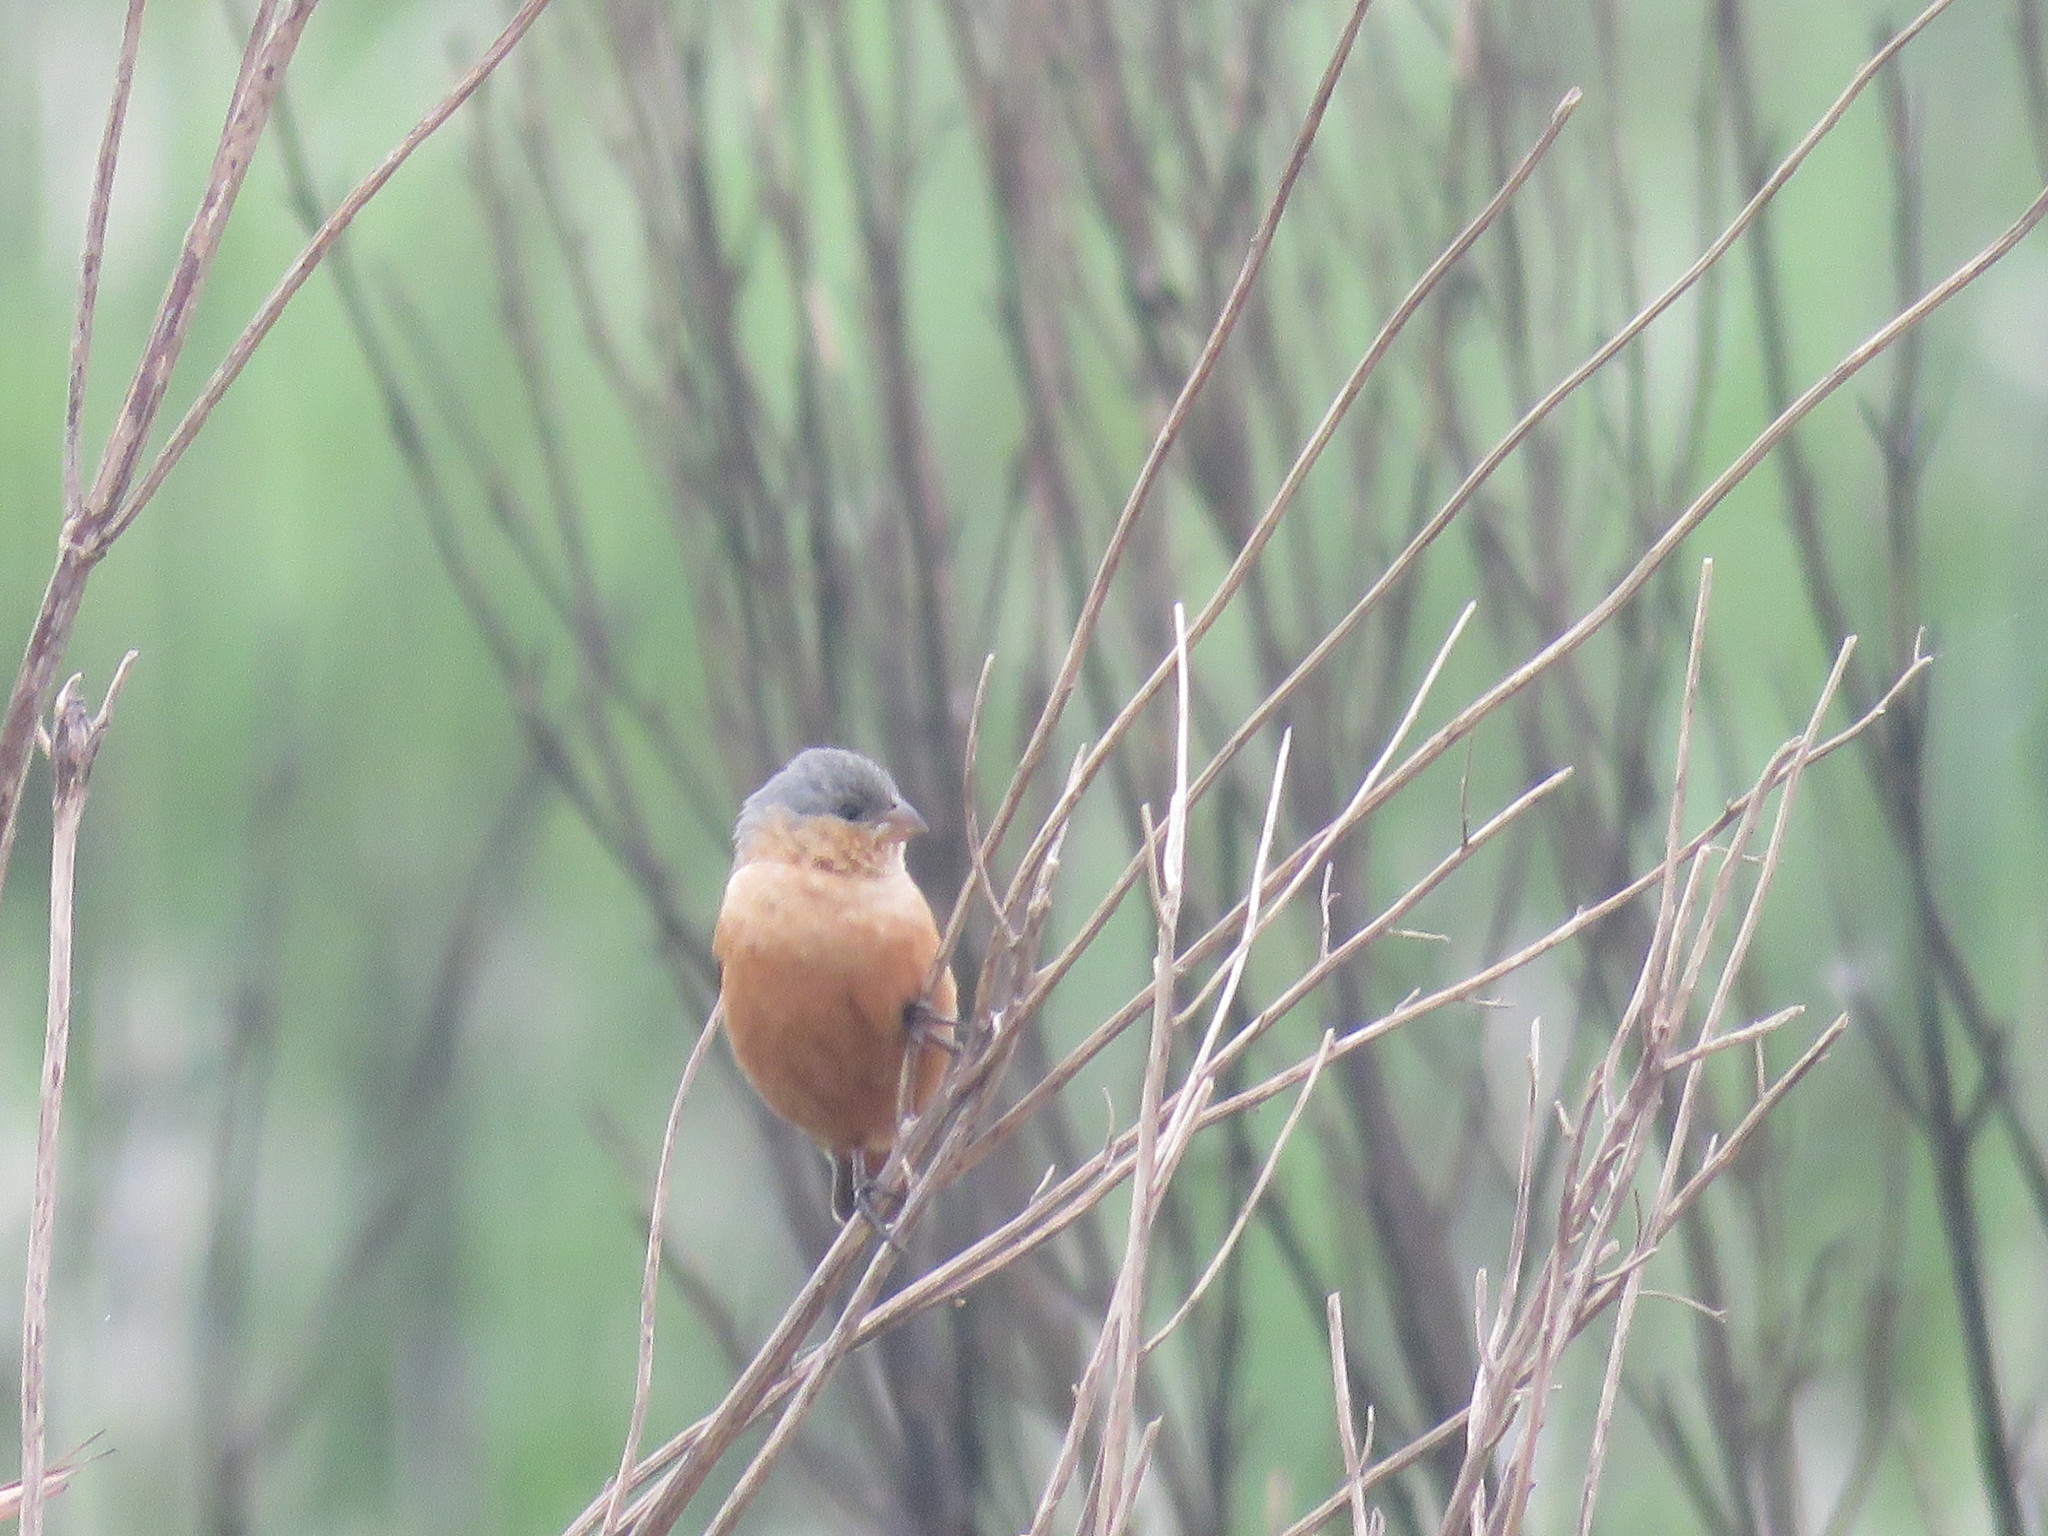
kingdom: Animalia
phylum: Chordata
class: Aves
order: Passeriformes
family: Thraupidae
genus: Sporophila
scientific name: Sporophila hypoxantha
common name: Tawny-bellied seedeater
